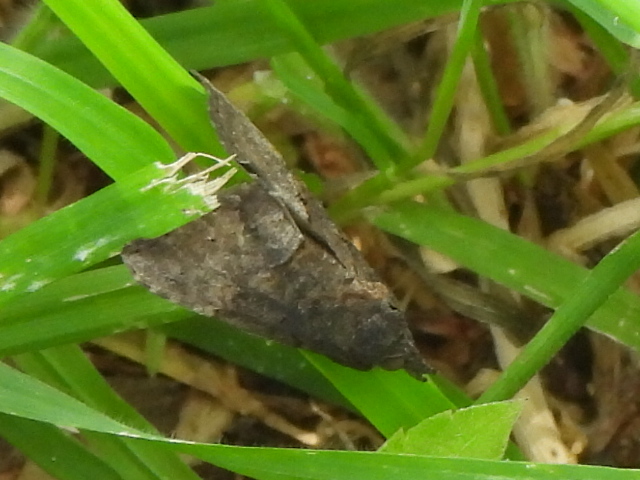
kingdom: Animalia
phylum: Arthropoda
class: Insecta
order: Lepidoptera
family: Erebidae
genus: Hypena
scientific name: Hypena scabra
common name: Green cloverworm
